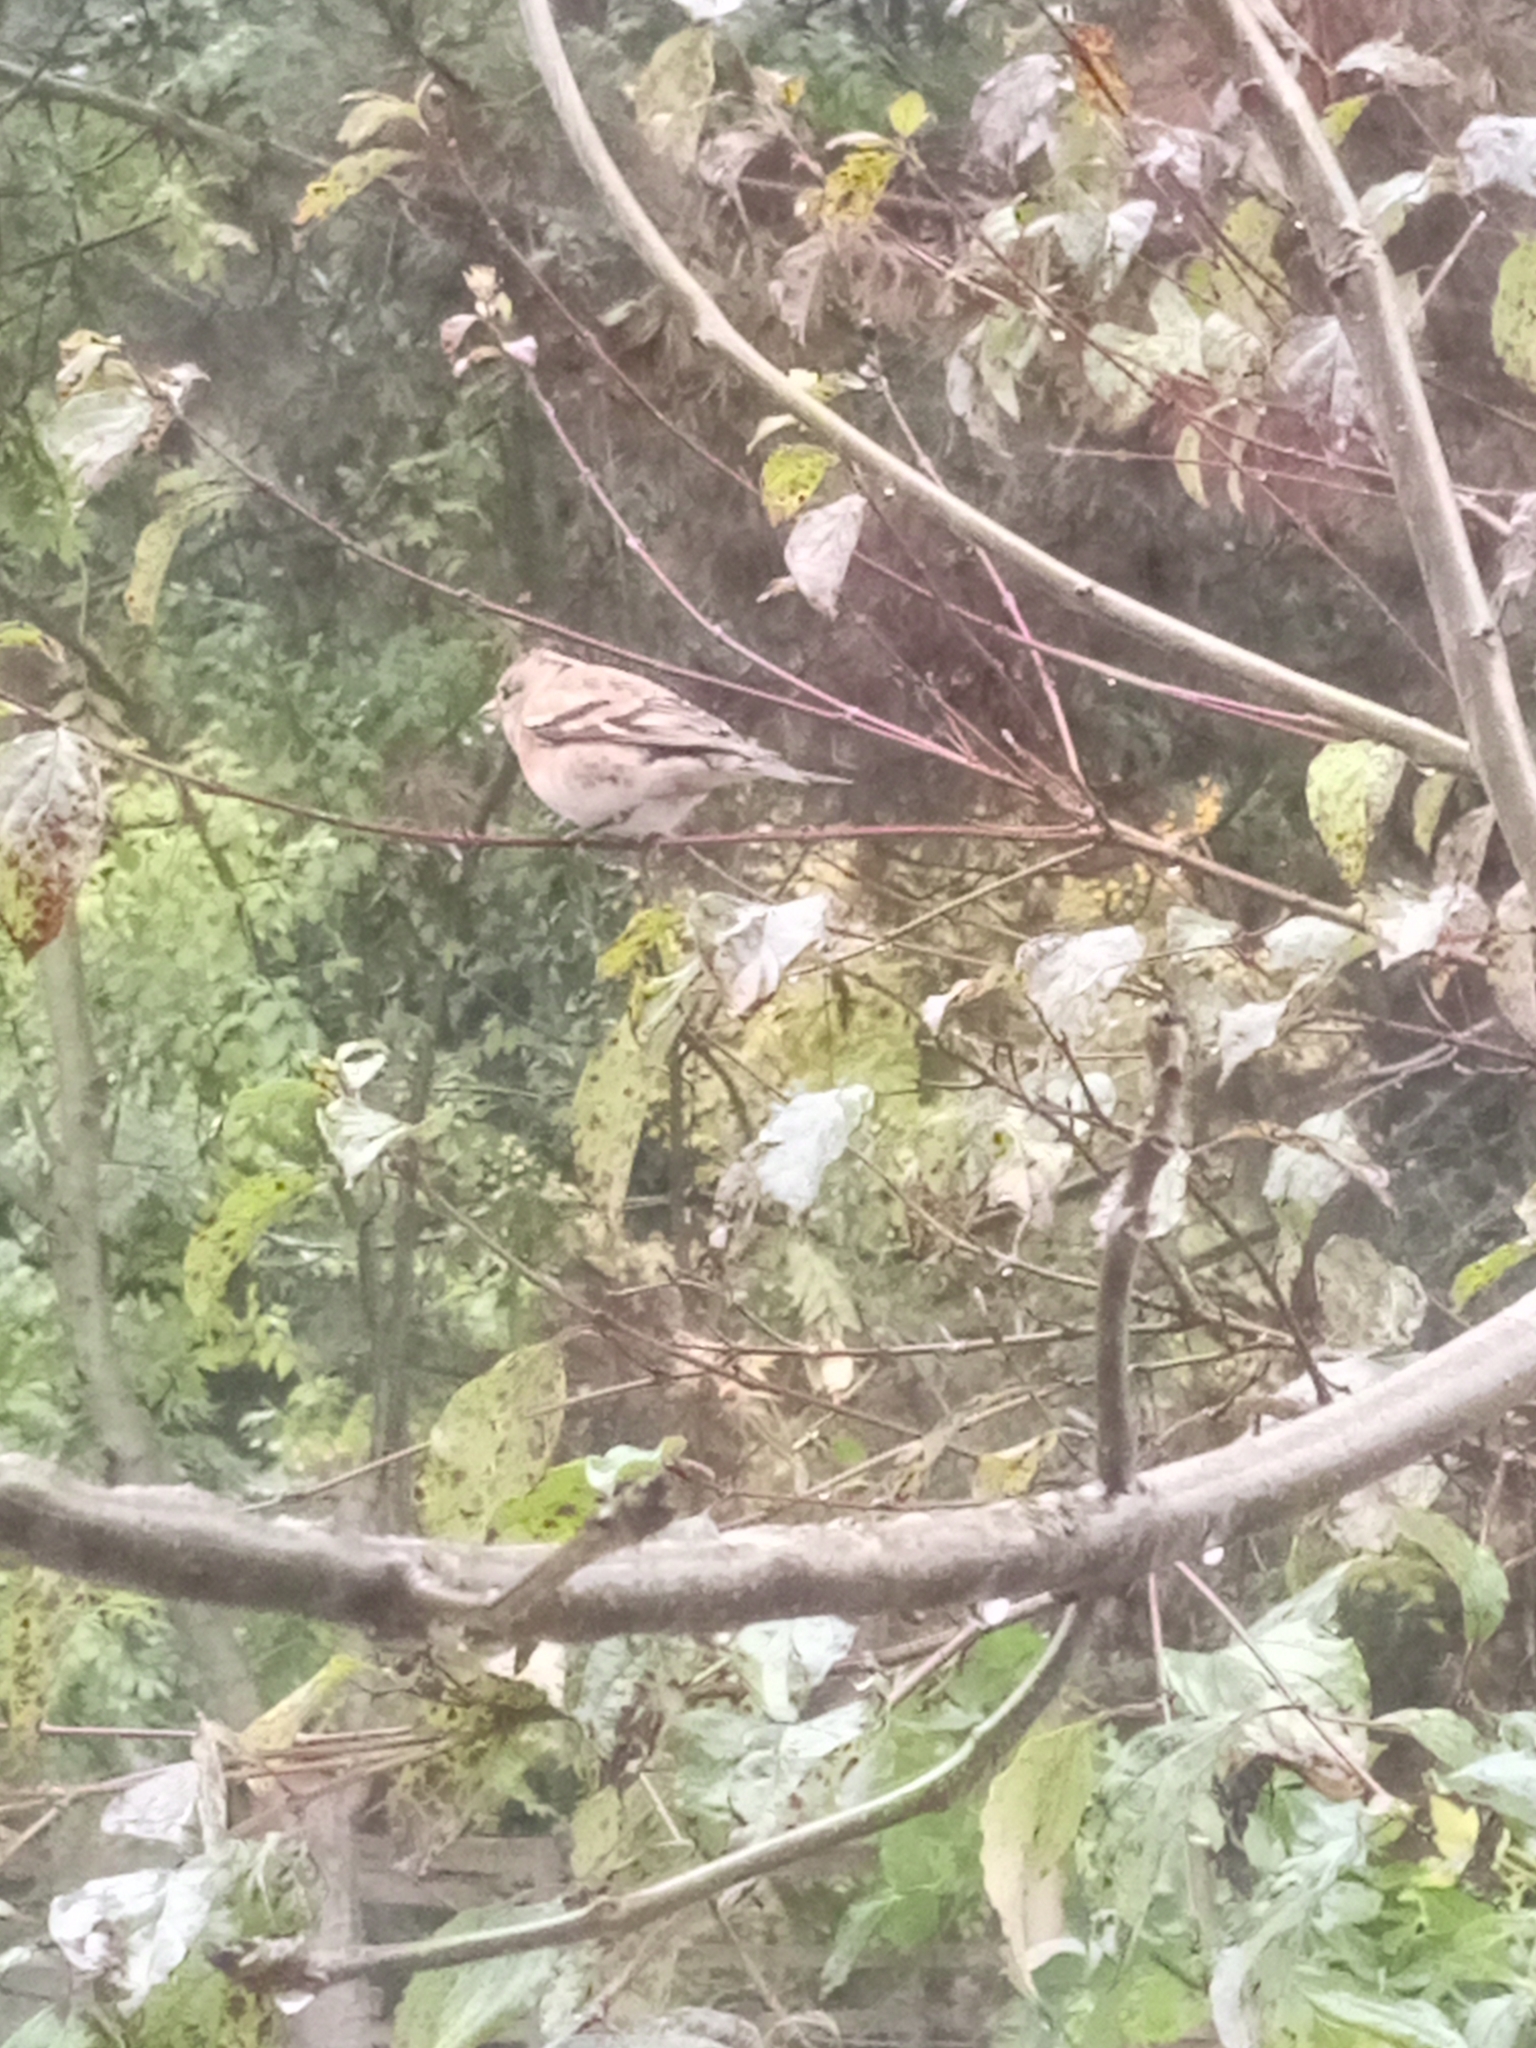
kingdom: Animalia
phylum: Chordata
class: Aves
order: Passeriformes
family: Fringillidae
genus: Fringilla
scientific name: Fringilla montifringilla
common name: Brambling
